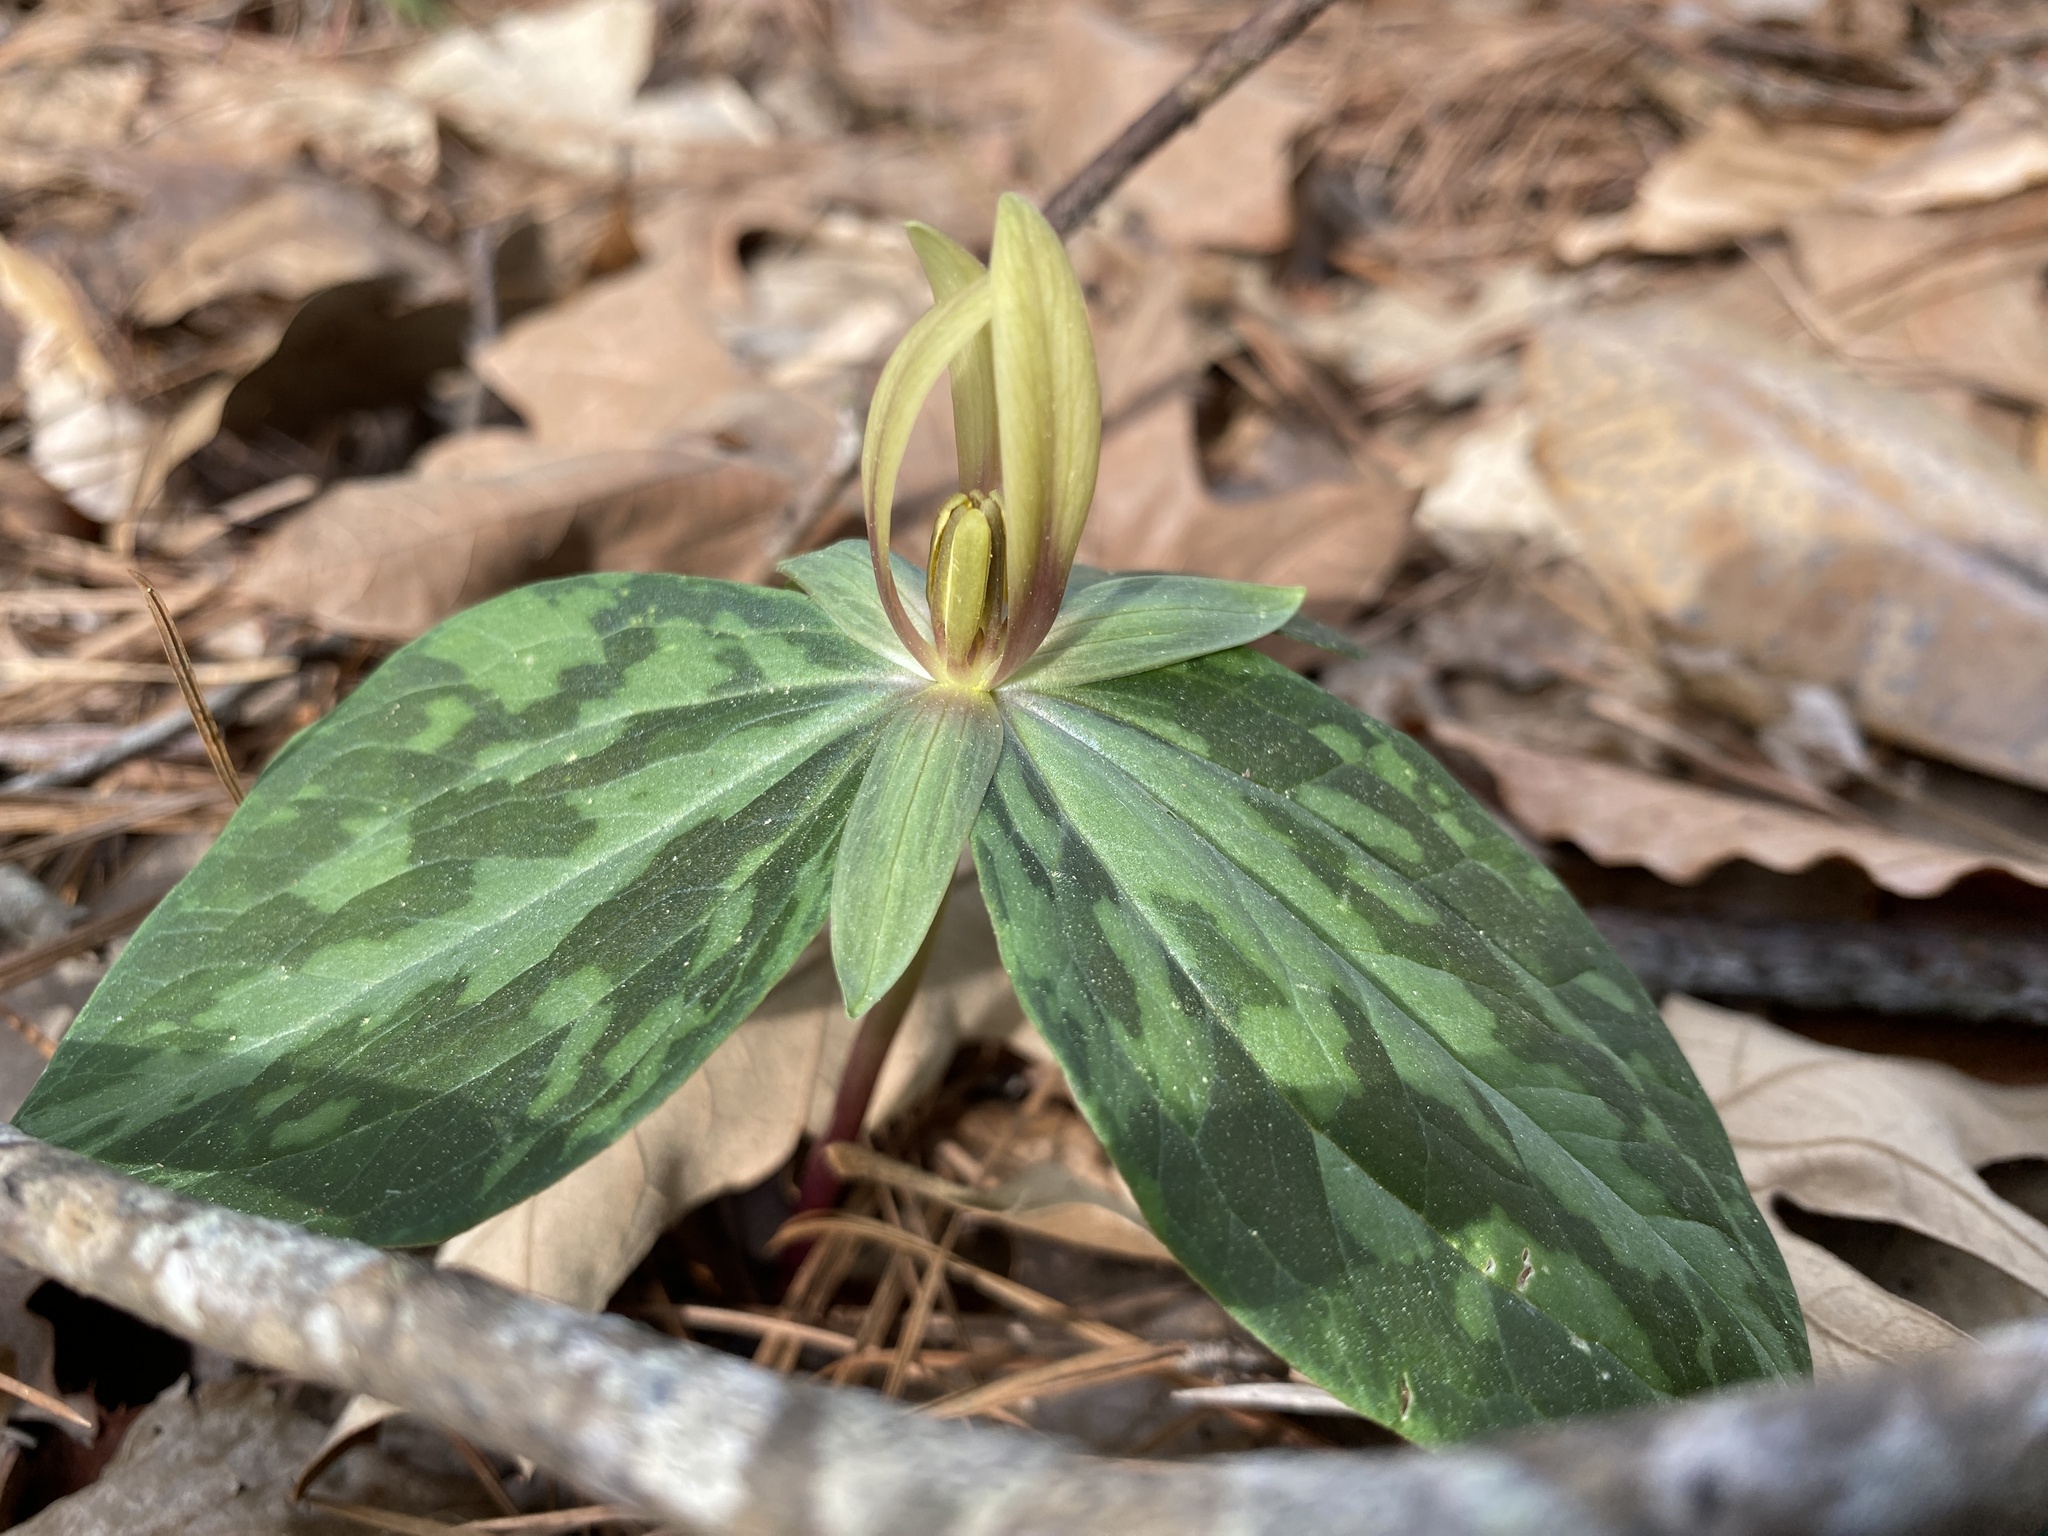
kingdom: Plantae
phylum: Tracheophyta
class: Liliopsida
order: Liliales
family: Melanthiaceae
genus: Trillium
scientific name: Trillium foetidissimum
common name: Mississippi river trillium
